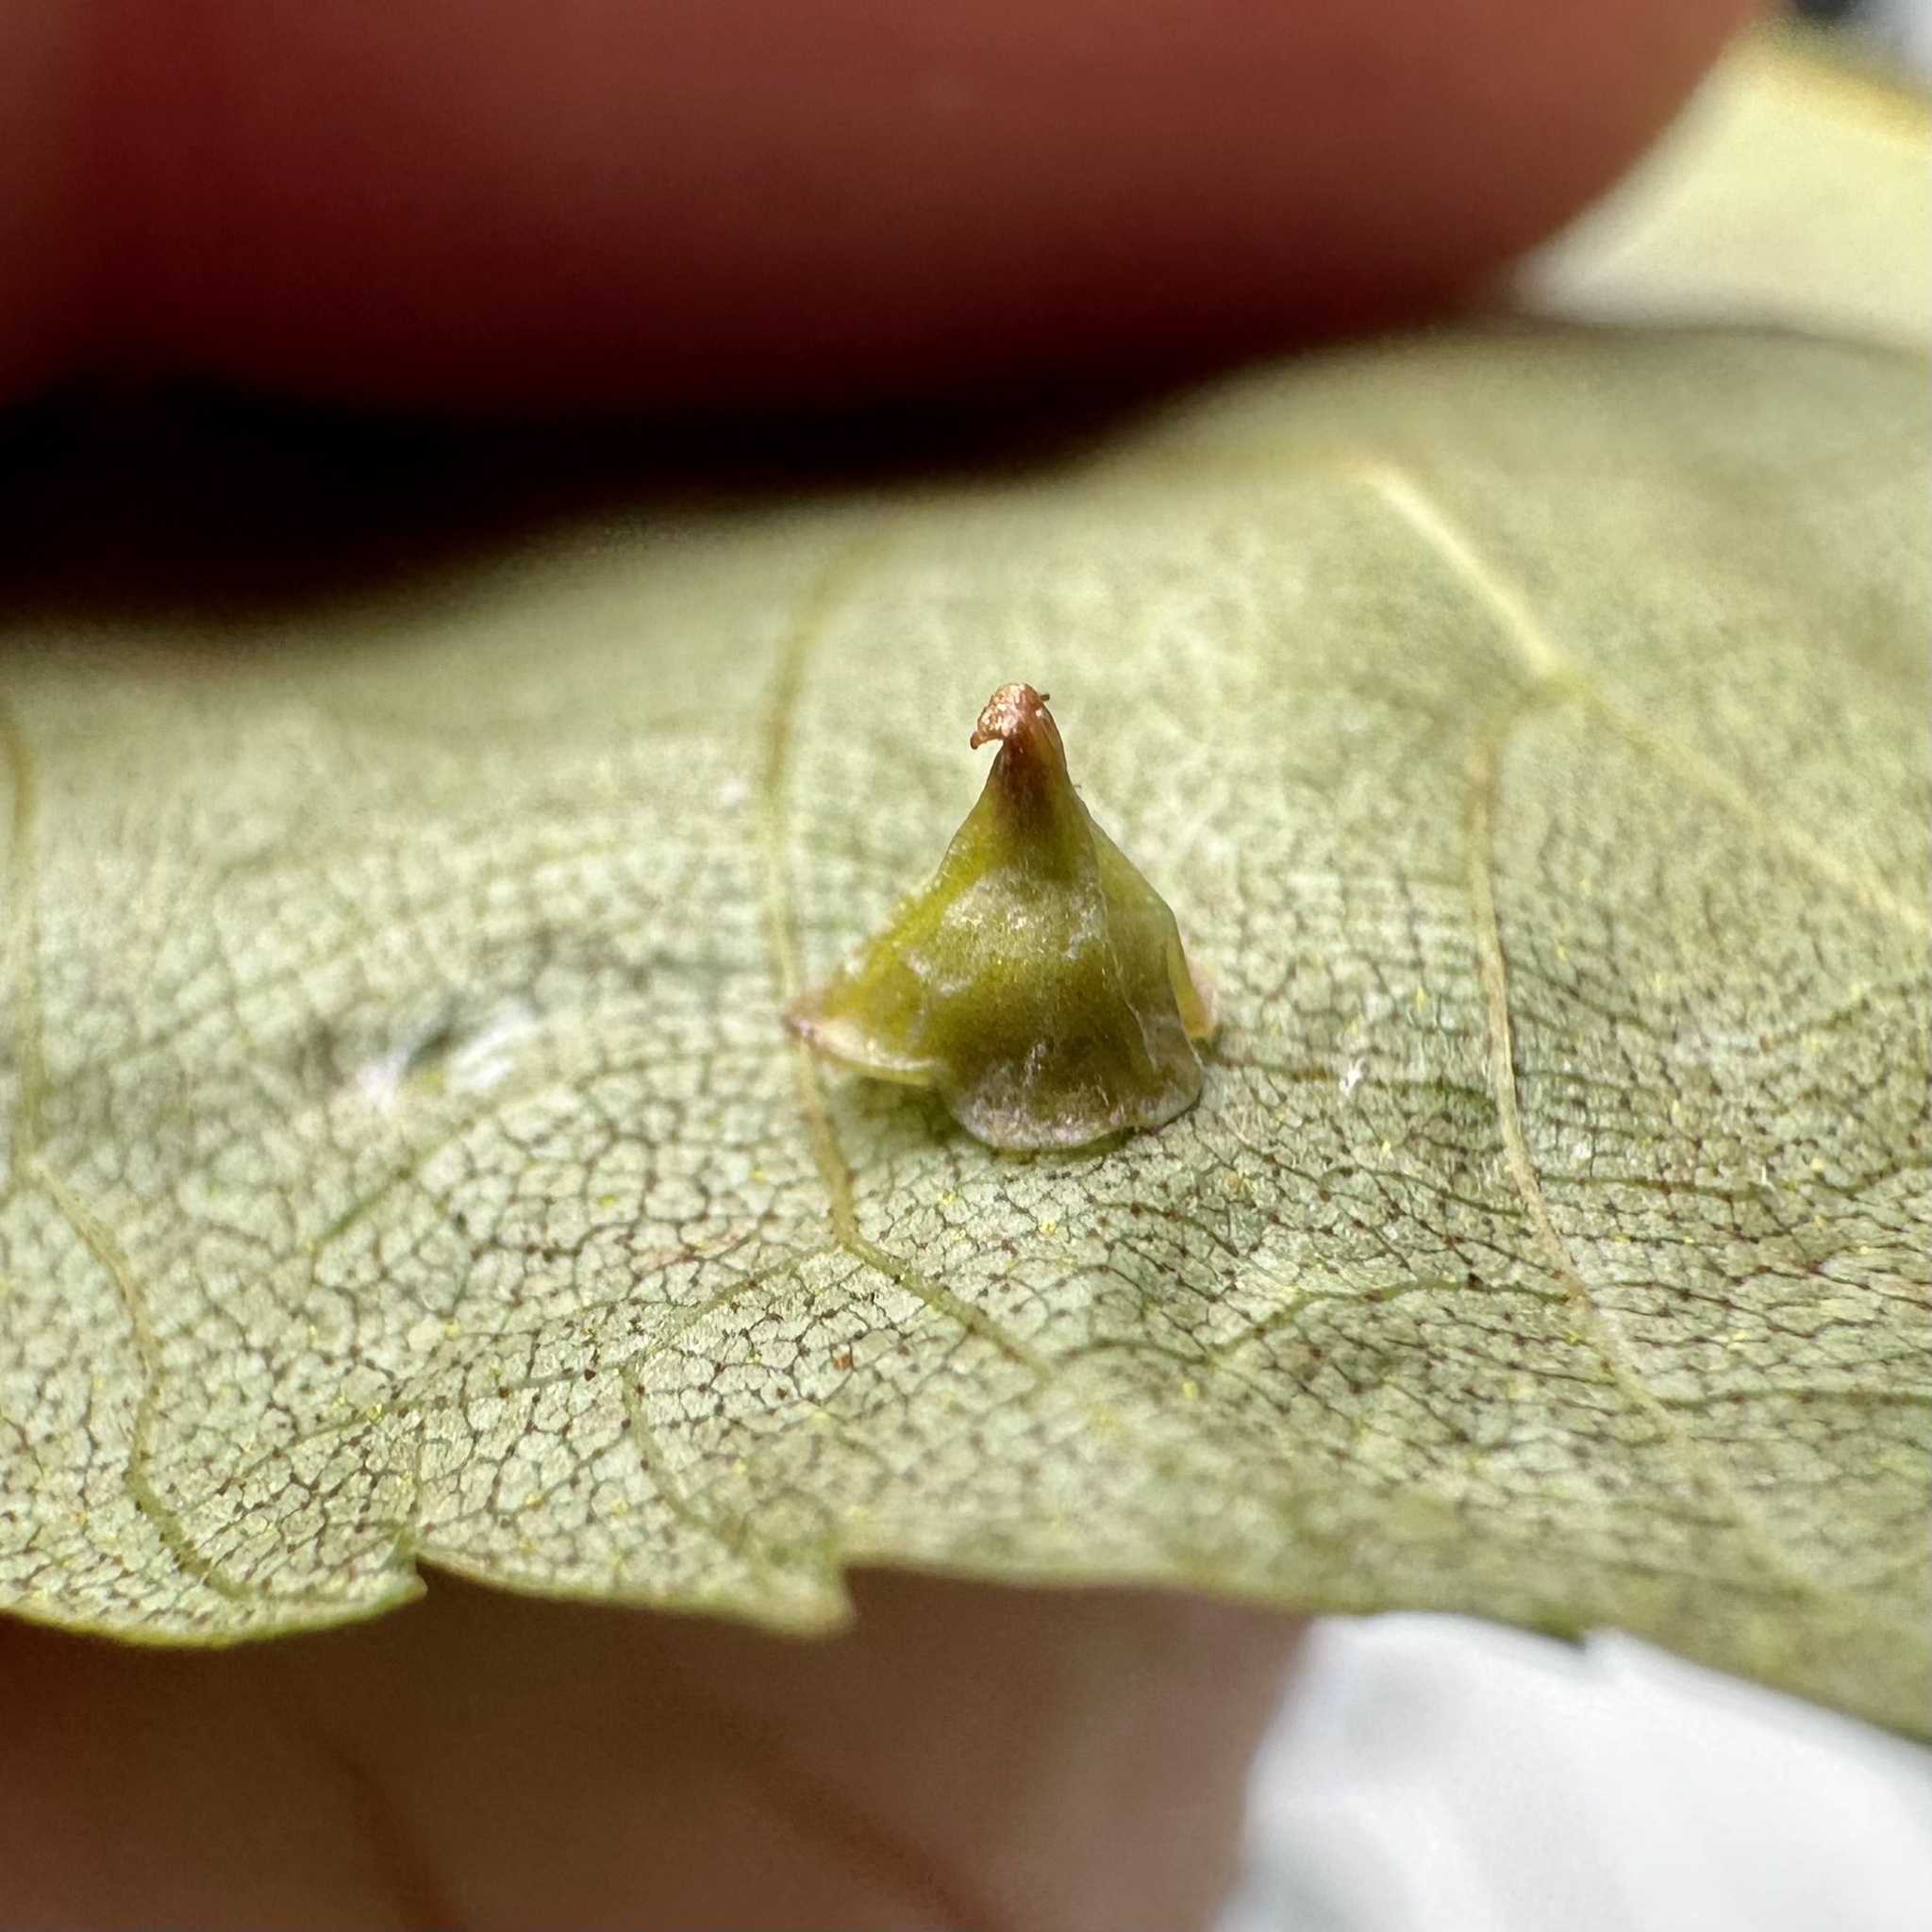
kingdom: Animalia
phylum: Arthropoda
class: Insecta
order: Diptera
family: Cecidomyiidae
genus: Caryomyia
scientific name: Caryomyia sanguinolenta
